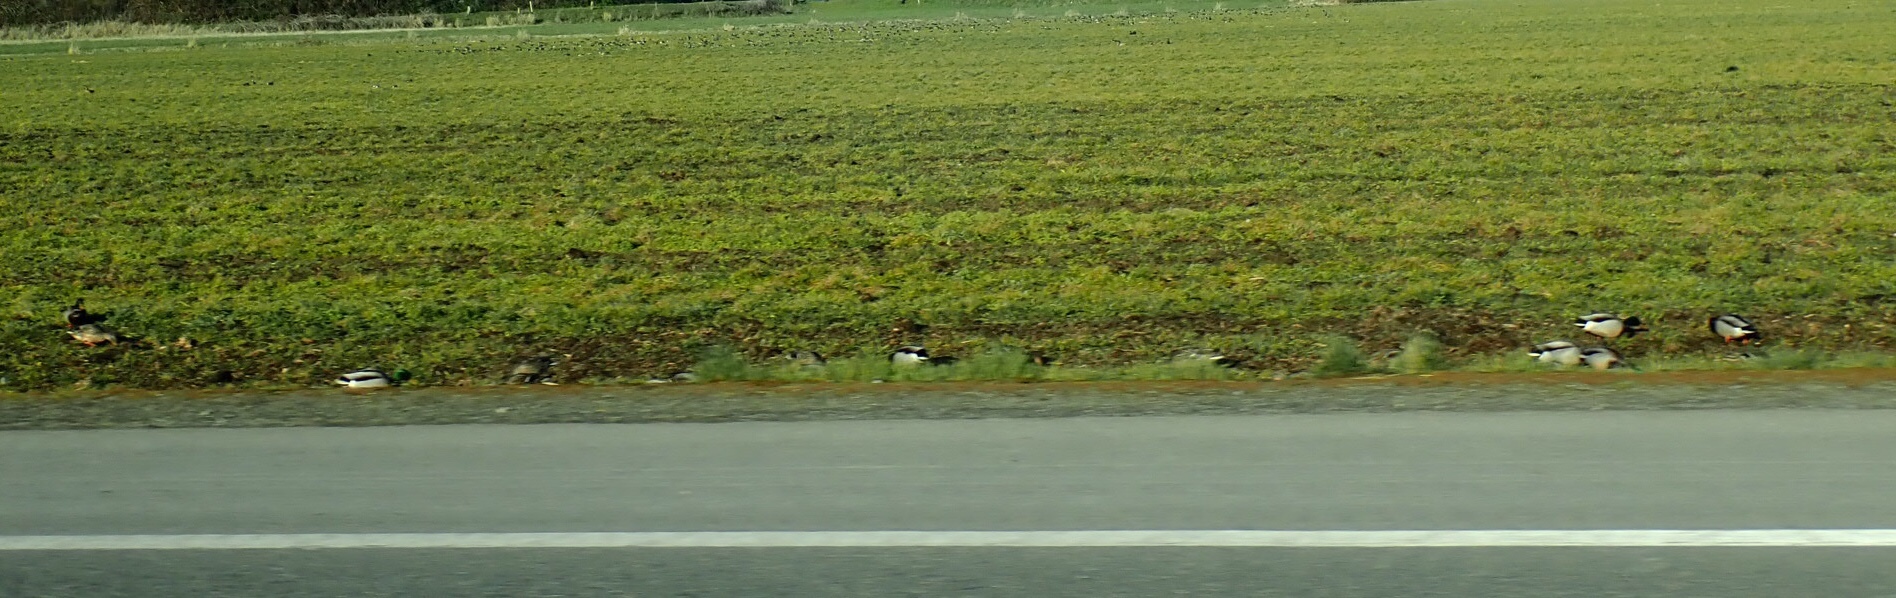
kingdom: Animalia
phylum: Chordata
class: Aves
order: Anseriformes
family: Anatidae
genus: Anas
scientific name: Anas platyrhynchos
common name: Mallard
